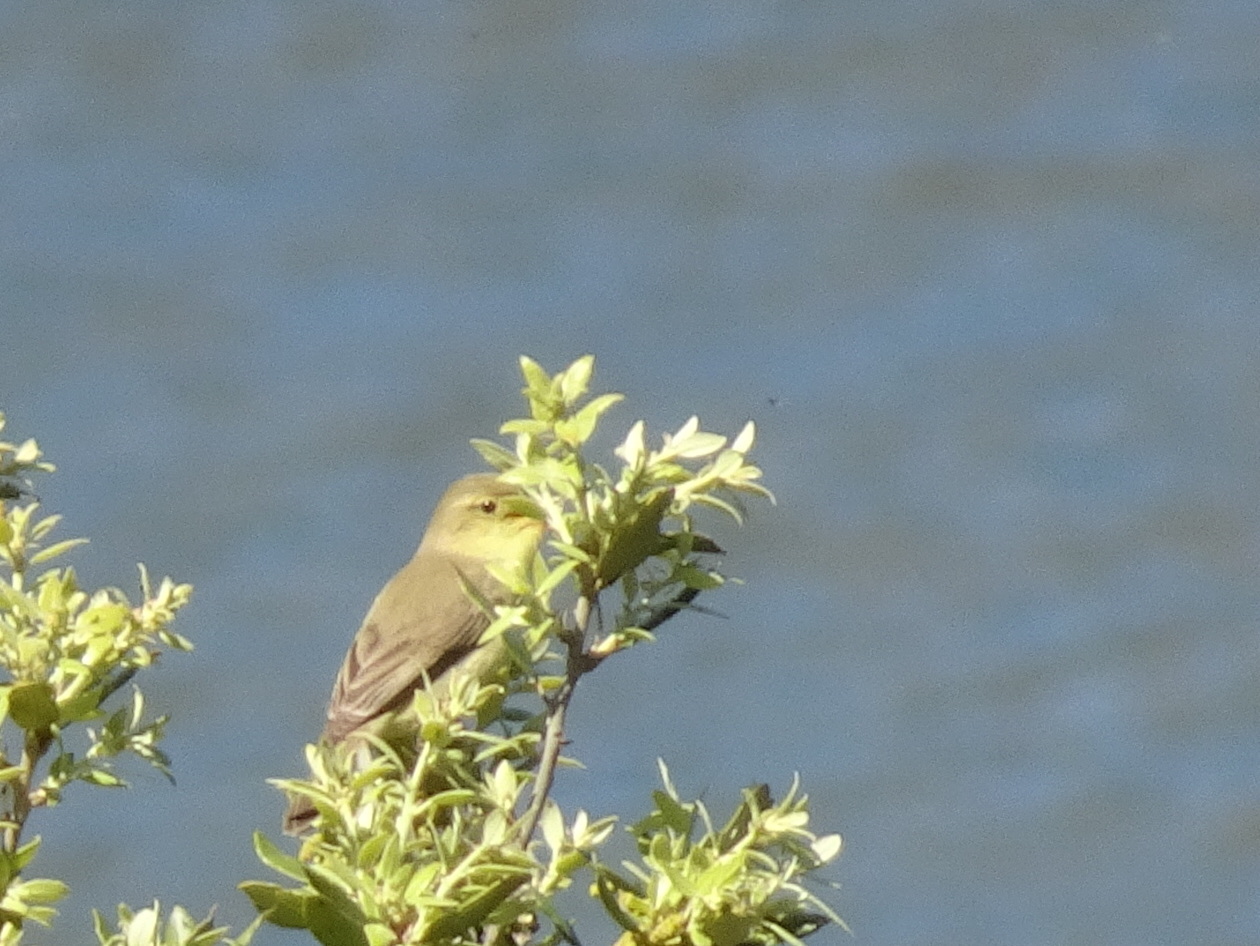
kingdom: Animalia
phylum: Chordata
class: Aves
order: Passeriformes
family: Acrocephalidae
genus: Hippolais
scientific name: Hippolais polyglotta
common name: Melodious warbler
